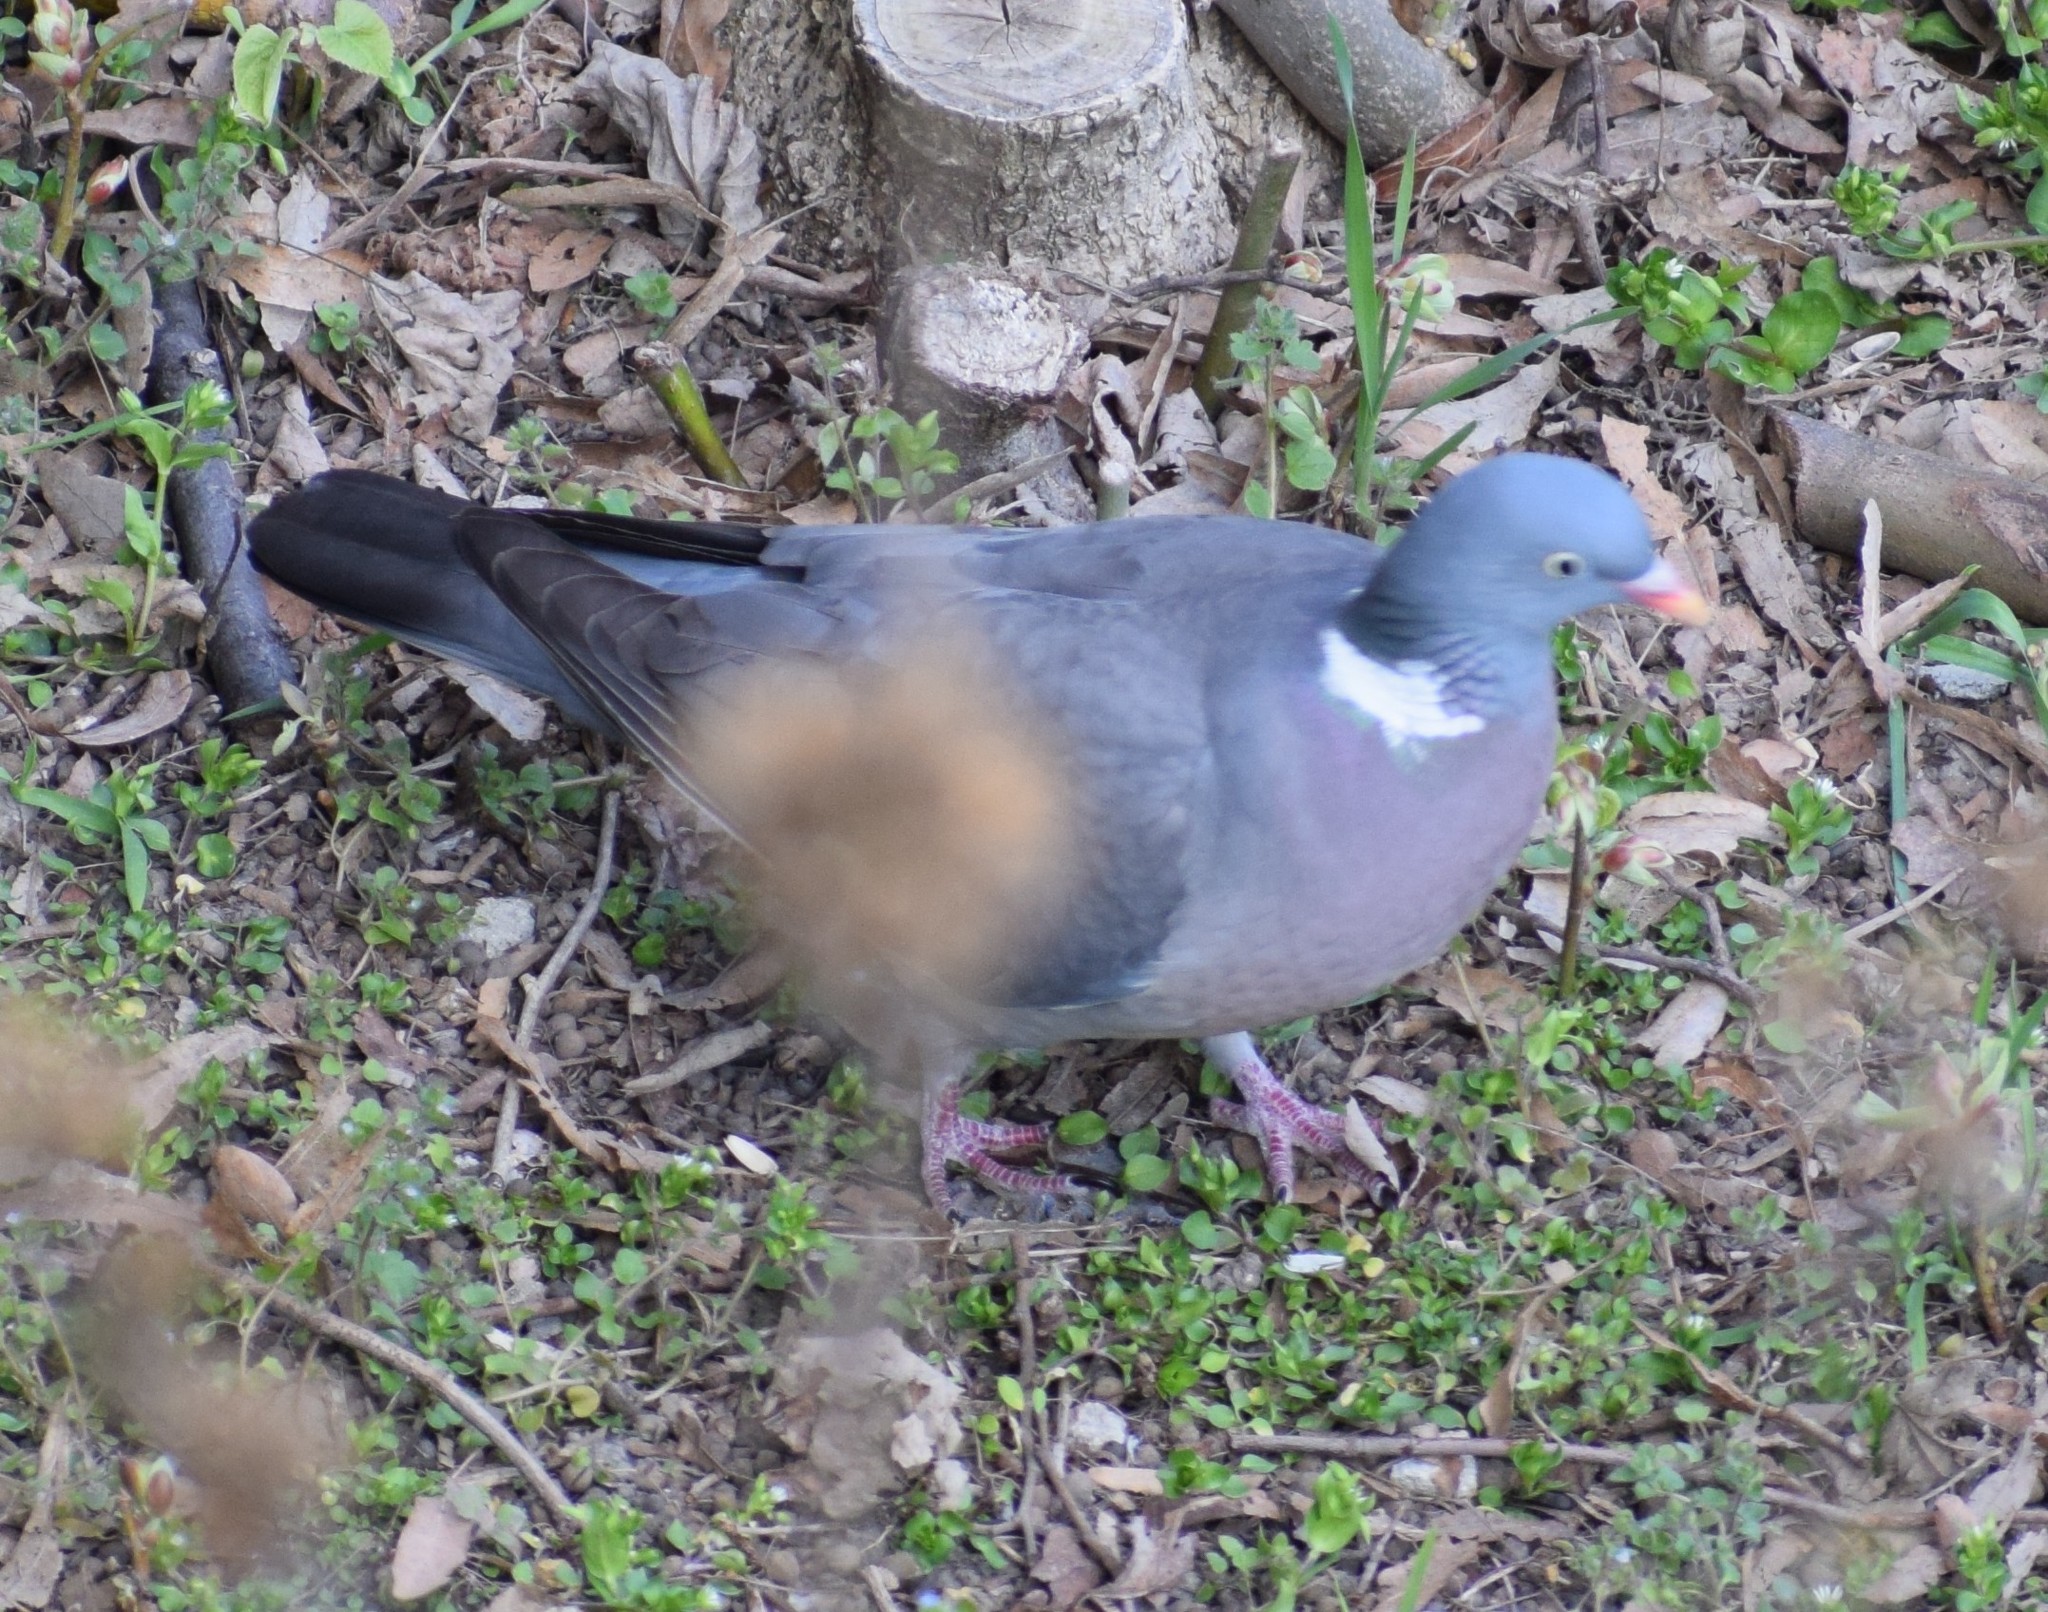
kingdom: Animalia
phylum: Chordata
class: Aves
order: Columbiformes
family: Columbidae
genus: Columba
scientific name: Columba palumbus
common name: Common wood pigeon
